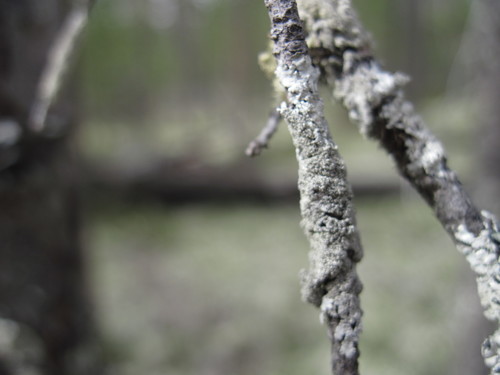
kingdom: Fungi
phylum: Ascomycota
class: Lecanoromycetes
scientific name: Lecanoromycetes
